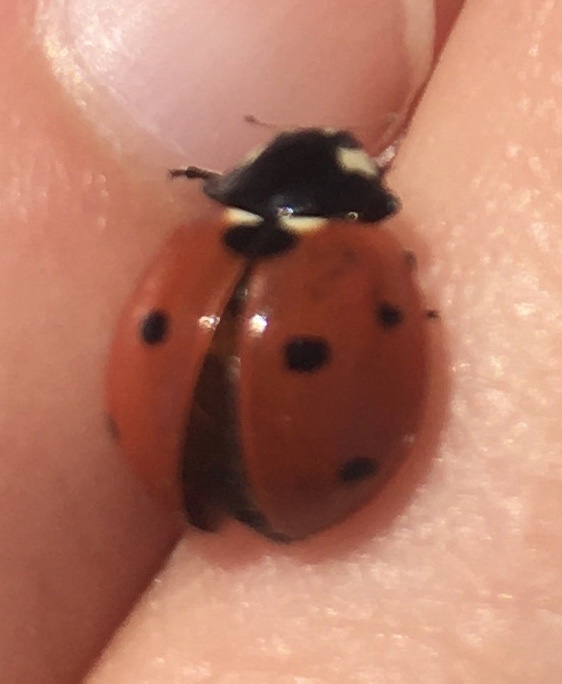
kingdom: Animalia
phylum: Arthropoda
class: Insecta
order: Coleoptera
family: Coccinellidae
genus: Coccinella
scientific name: Coccinella septempunctata
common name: Sevenspotted lady beetle
